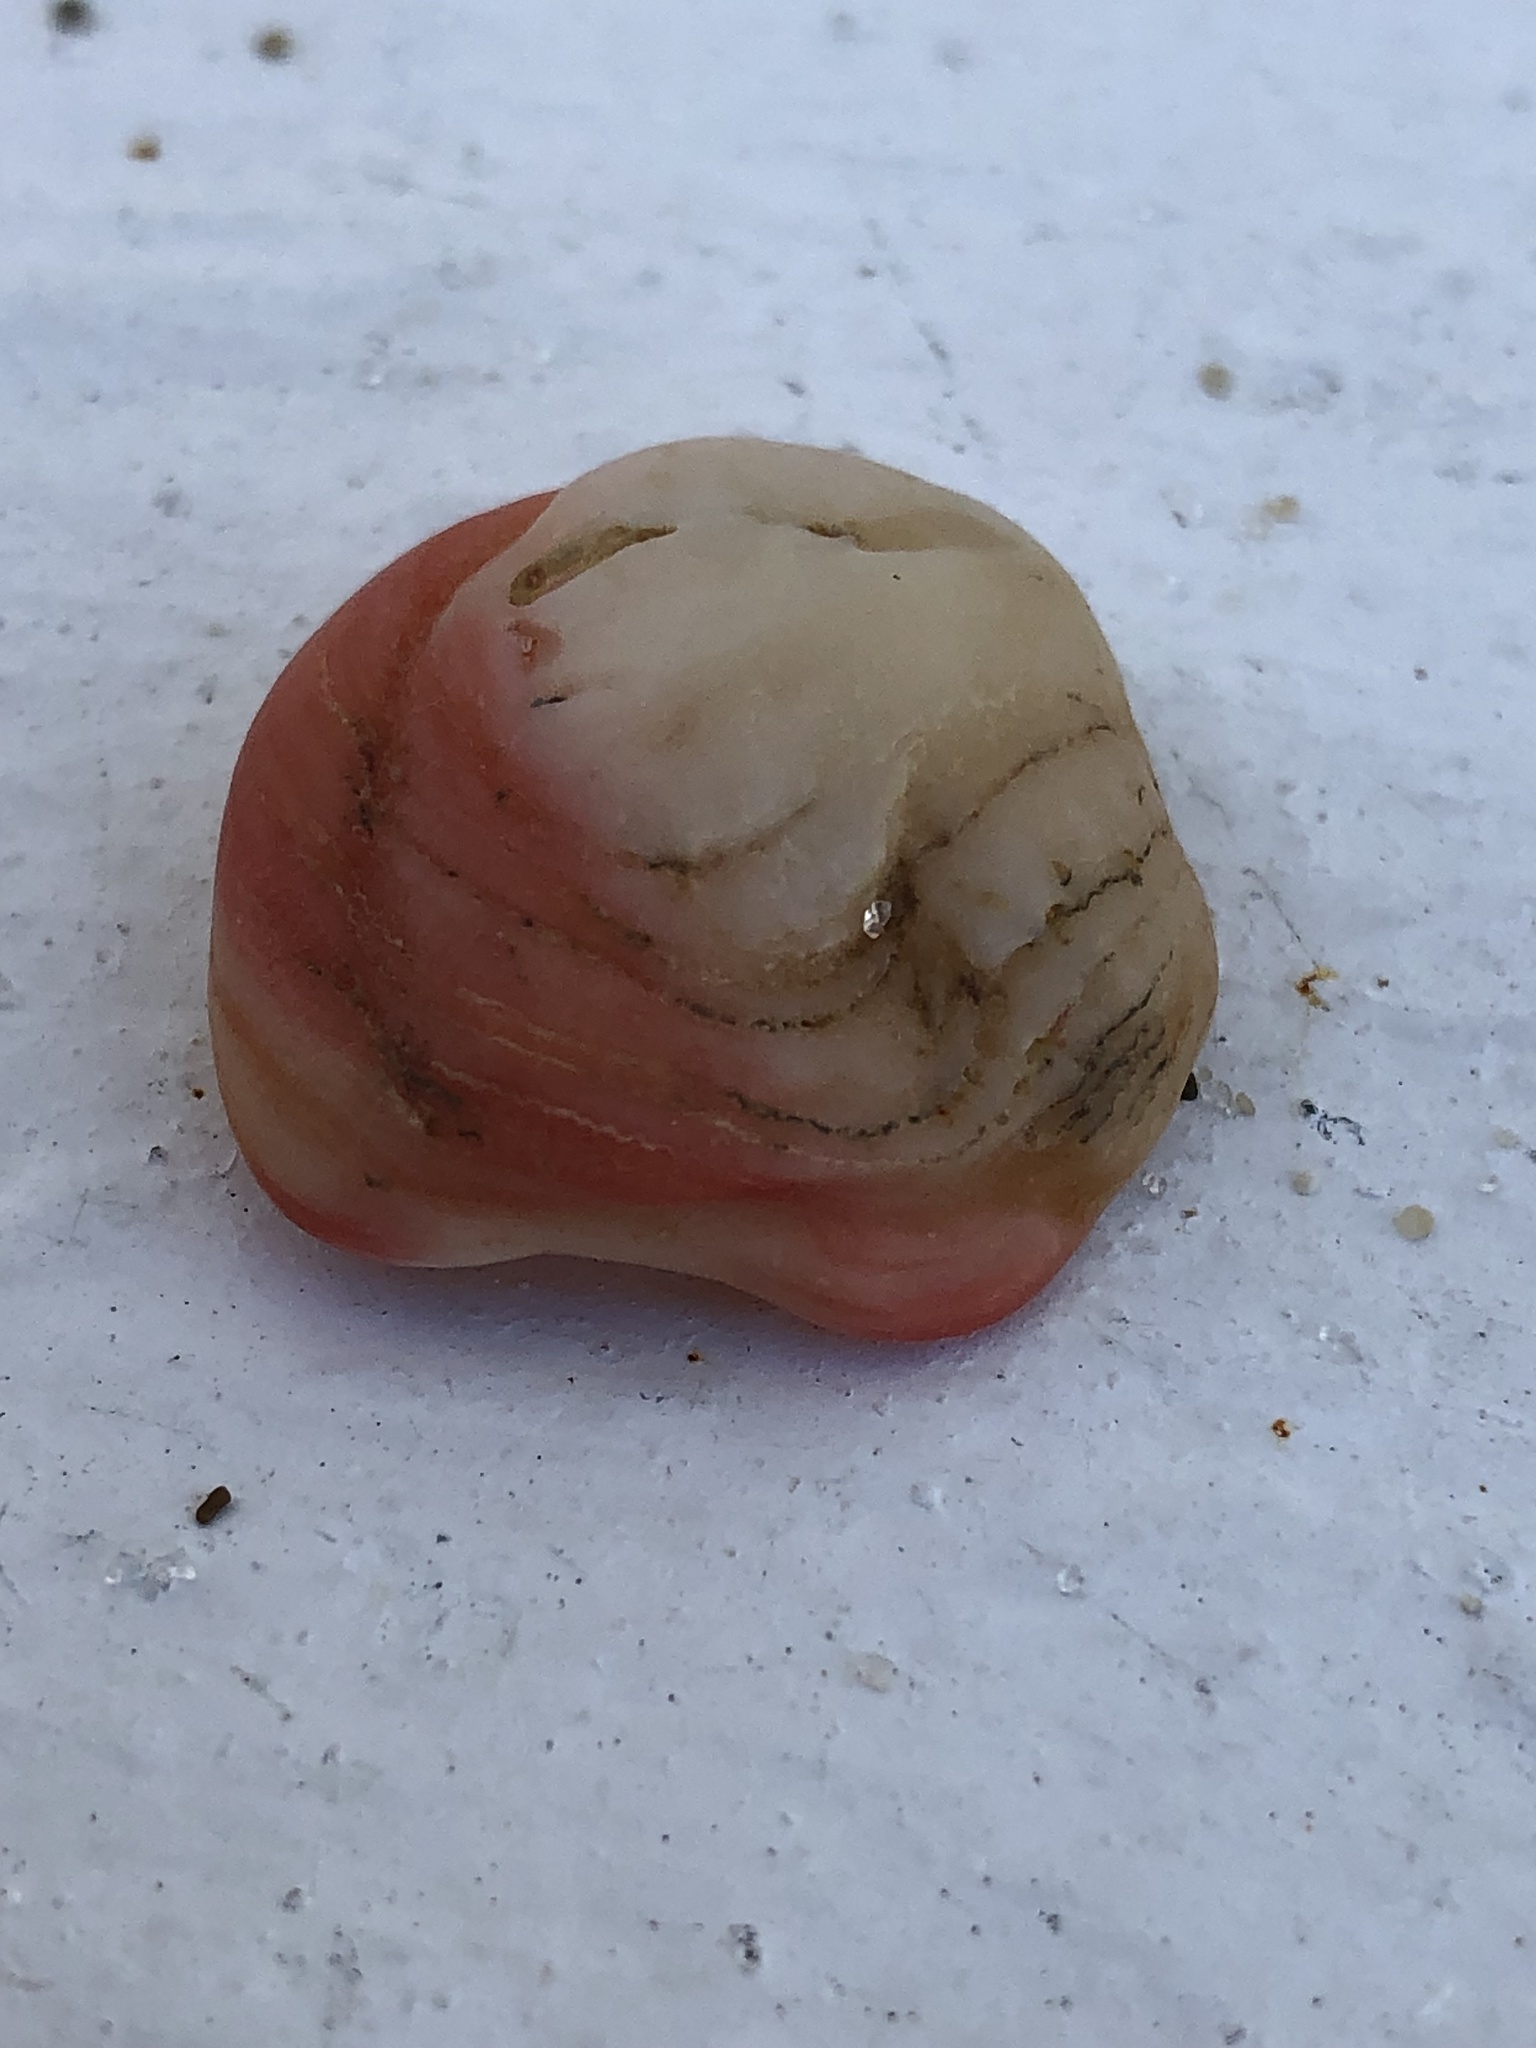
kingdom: Animalia
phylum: Mollusca
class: Bivalvia
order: Venerida
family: Chamidae
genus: Chama
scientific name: Chama congregata
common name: Corrugate jewelbox
